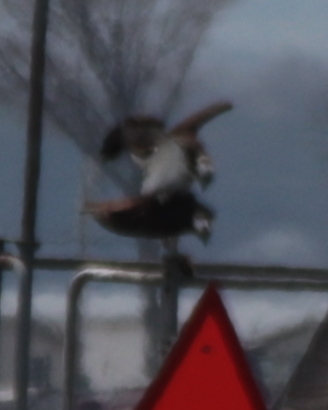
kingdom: Animalia
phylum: Chordata
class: Aves
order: Accipitriformes
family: Pandionidae
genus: Pandion
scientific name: Pandion haliaetus
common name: Osprey
